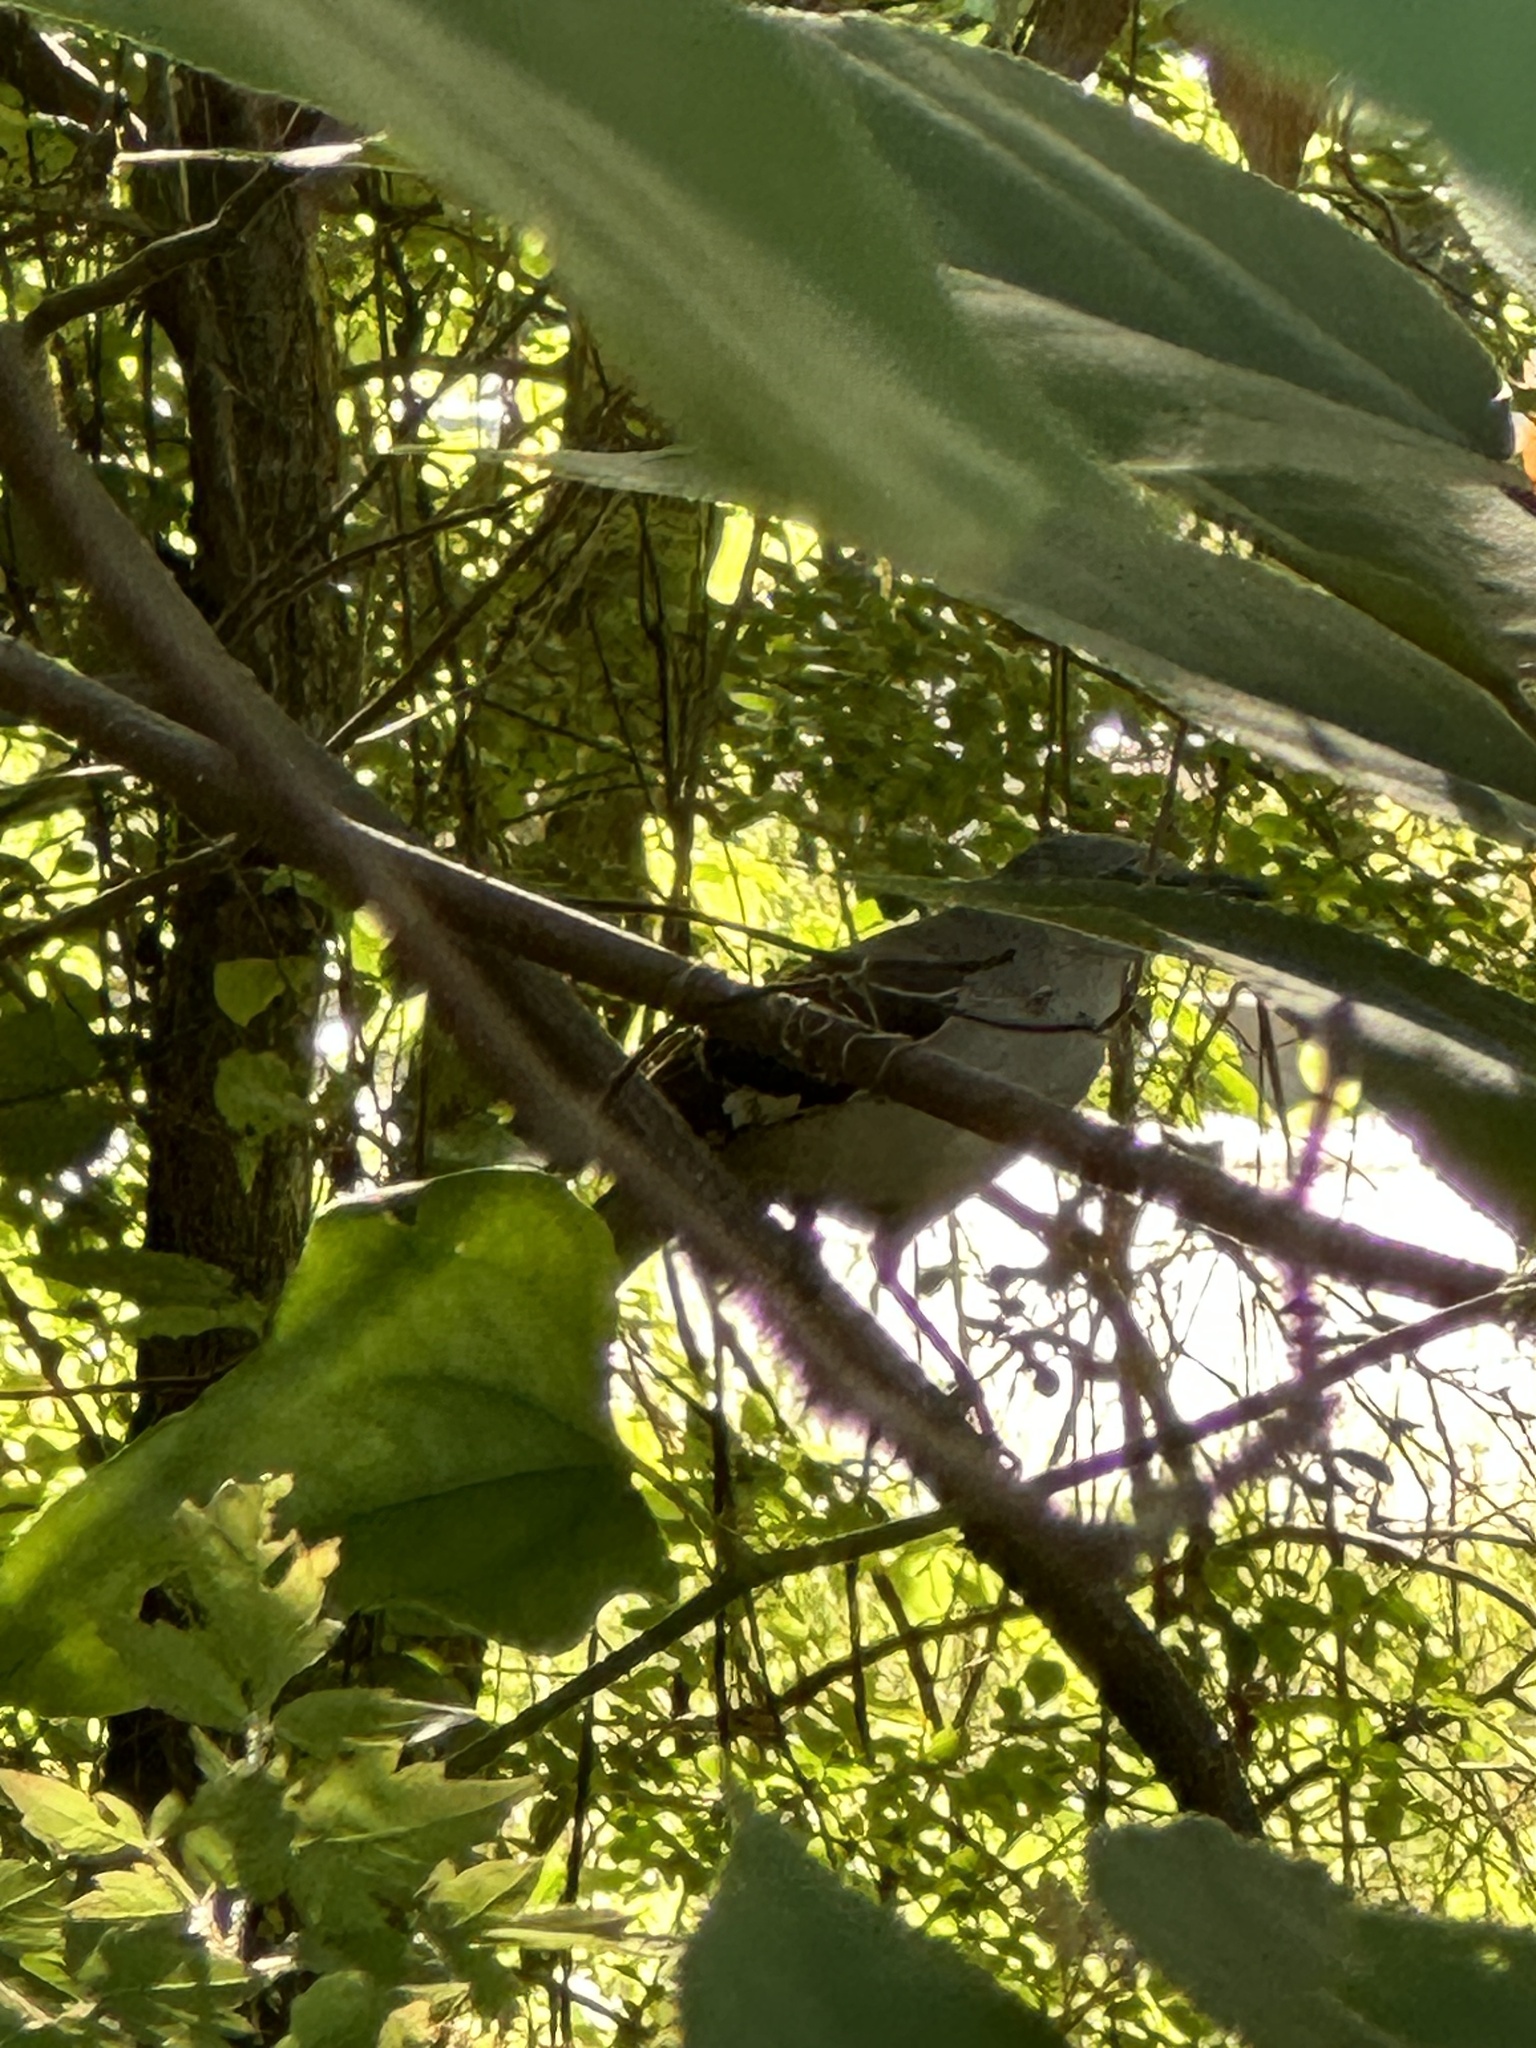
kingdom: Animalia
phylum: Chordata
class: Aves
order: Passeriformes
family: Mimidae
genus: Mimus
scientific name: Mimus polyglottos
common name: Northern mockingbird
